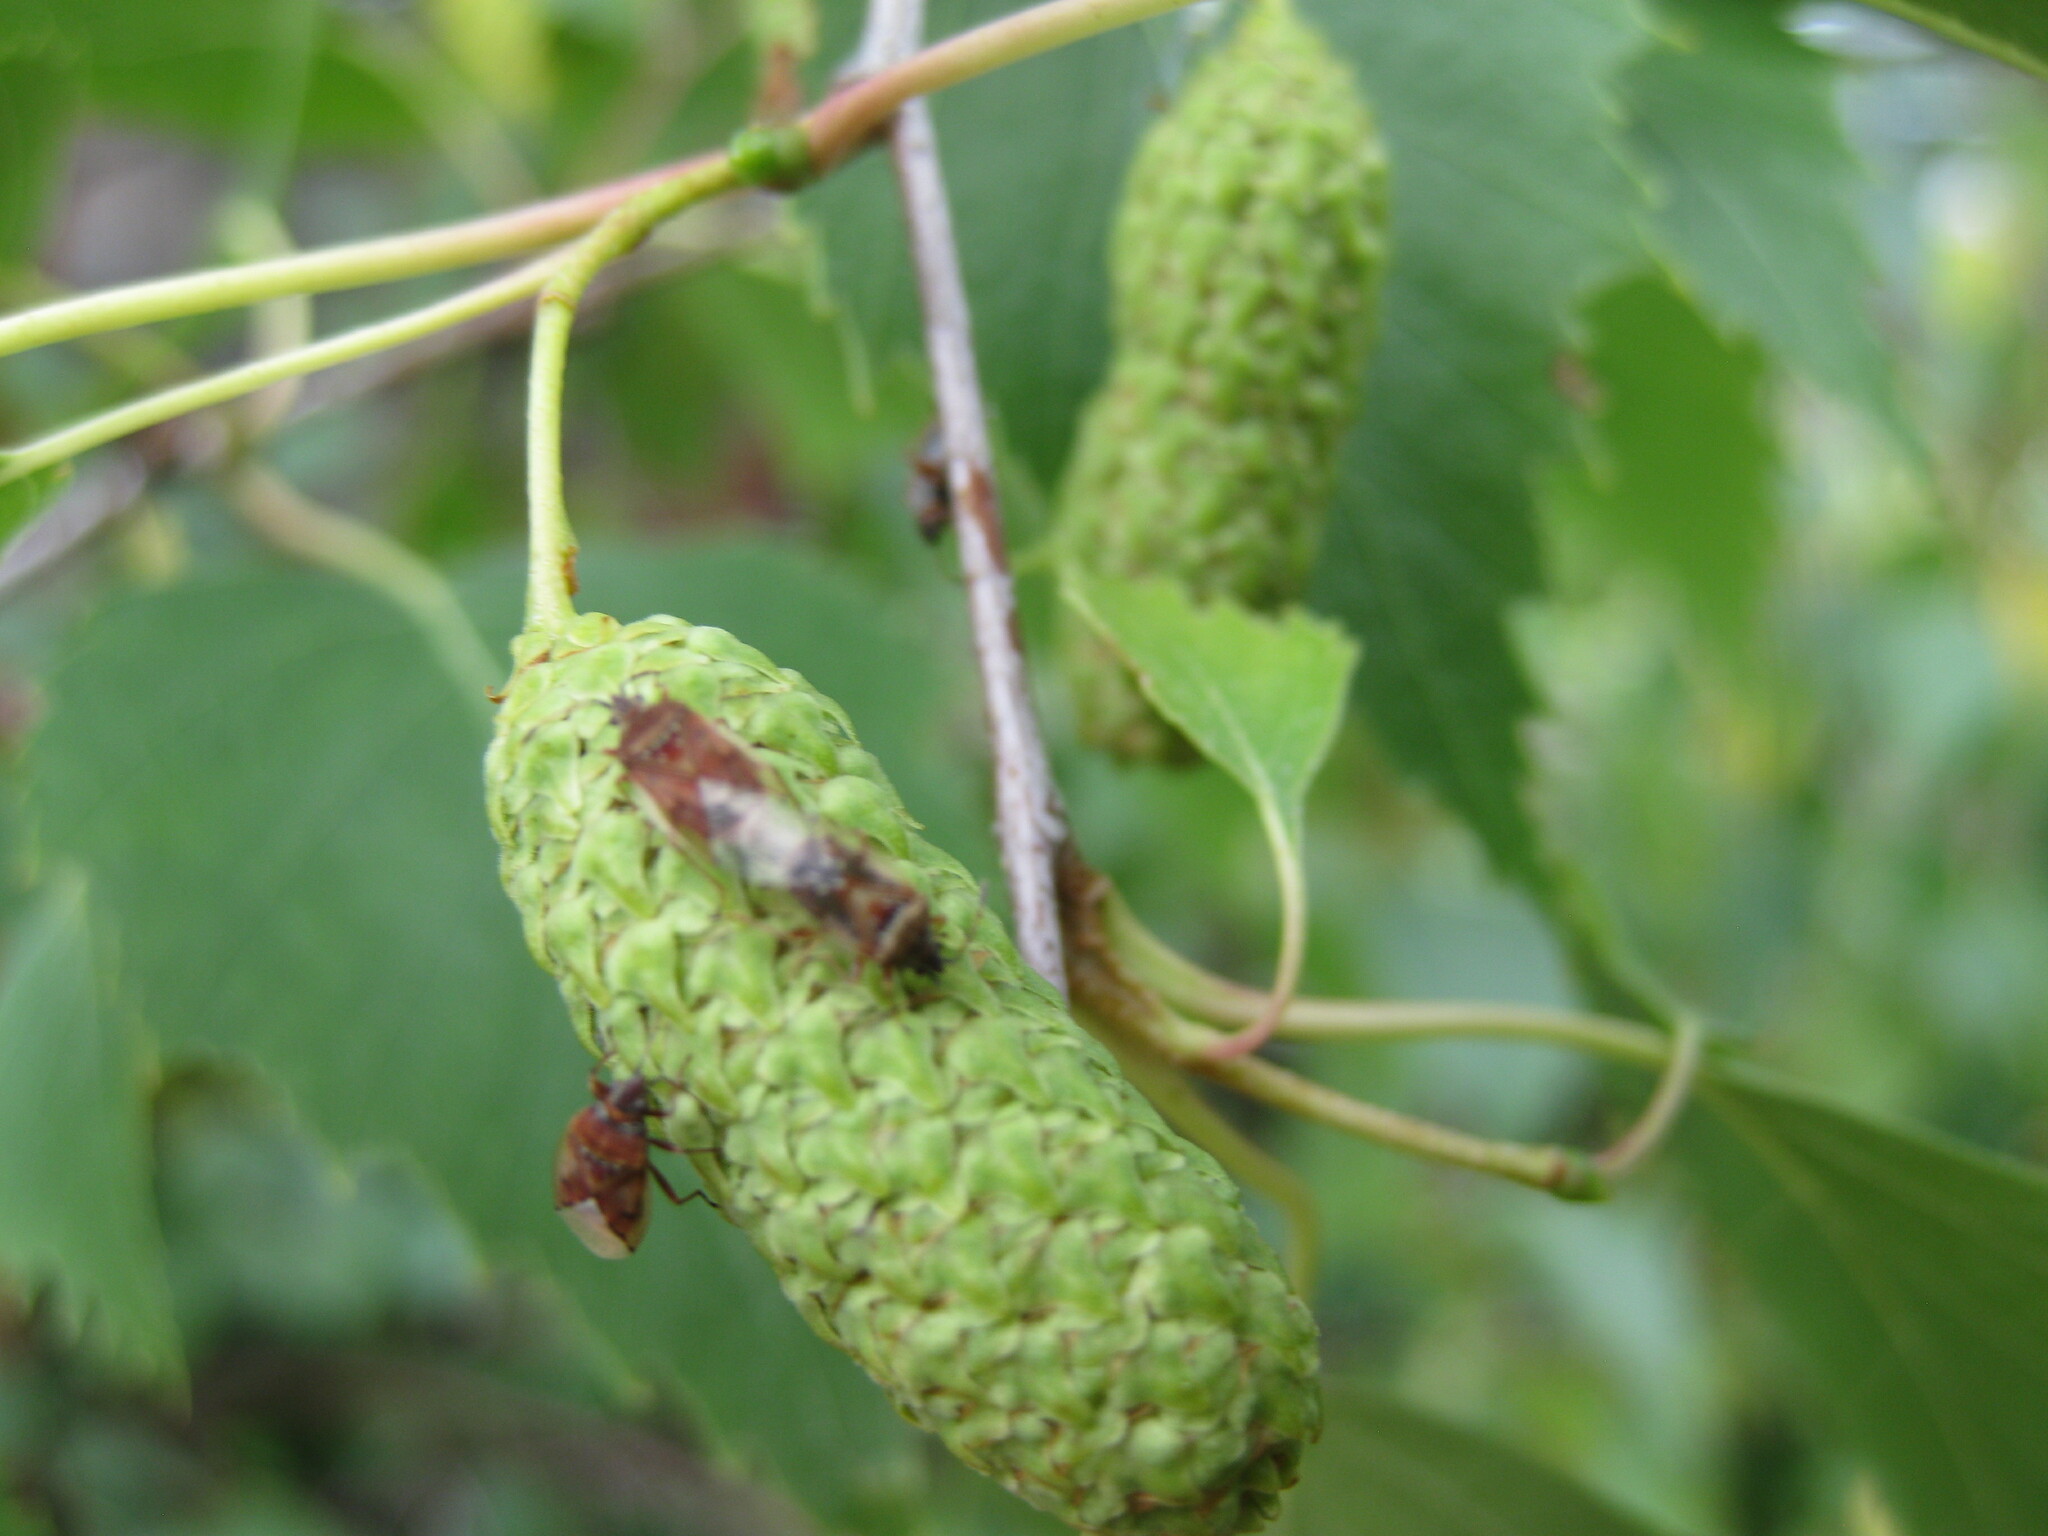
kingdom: Animalia
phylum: Arthropoda
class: Insecta
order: Hemiptera
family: Lygaeidae
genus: Kleidocerys
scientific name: Kleidocerys resedae
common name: Birch catkin bug
